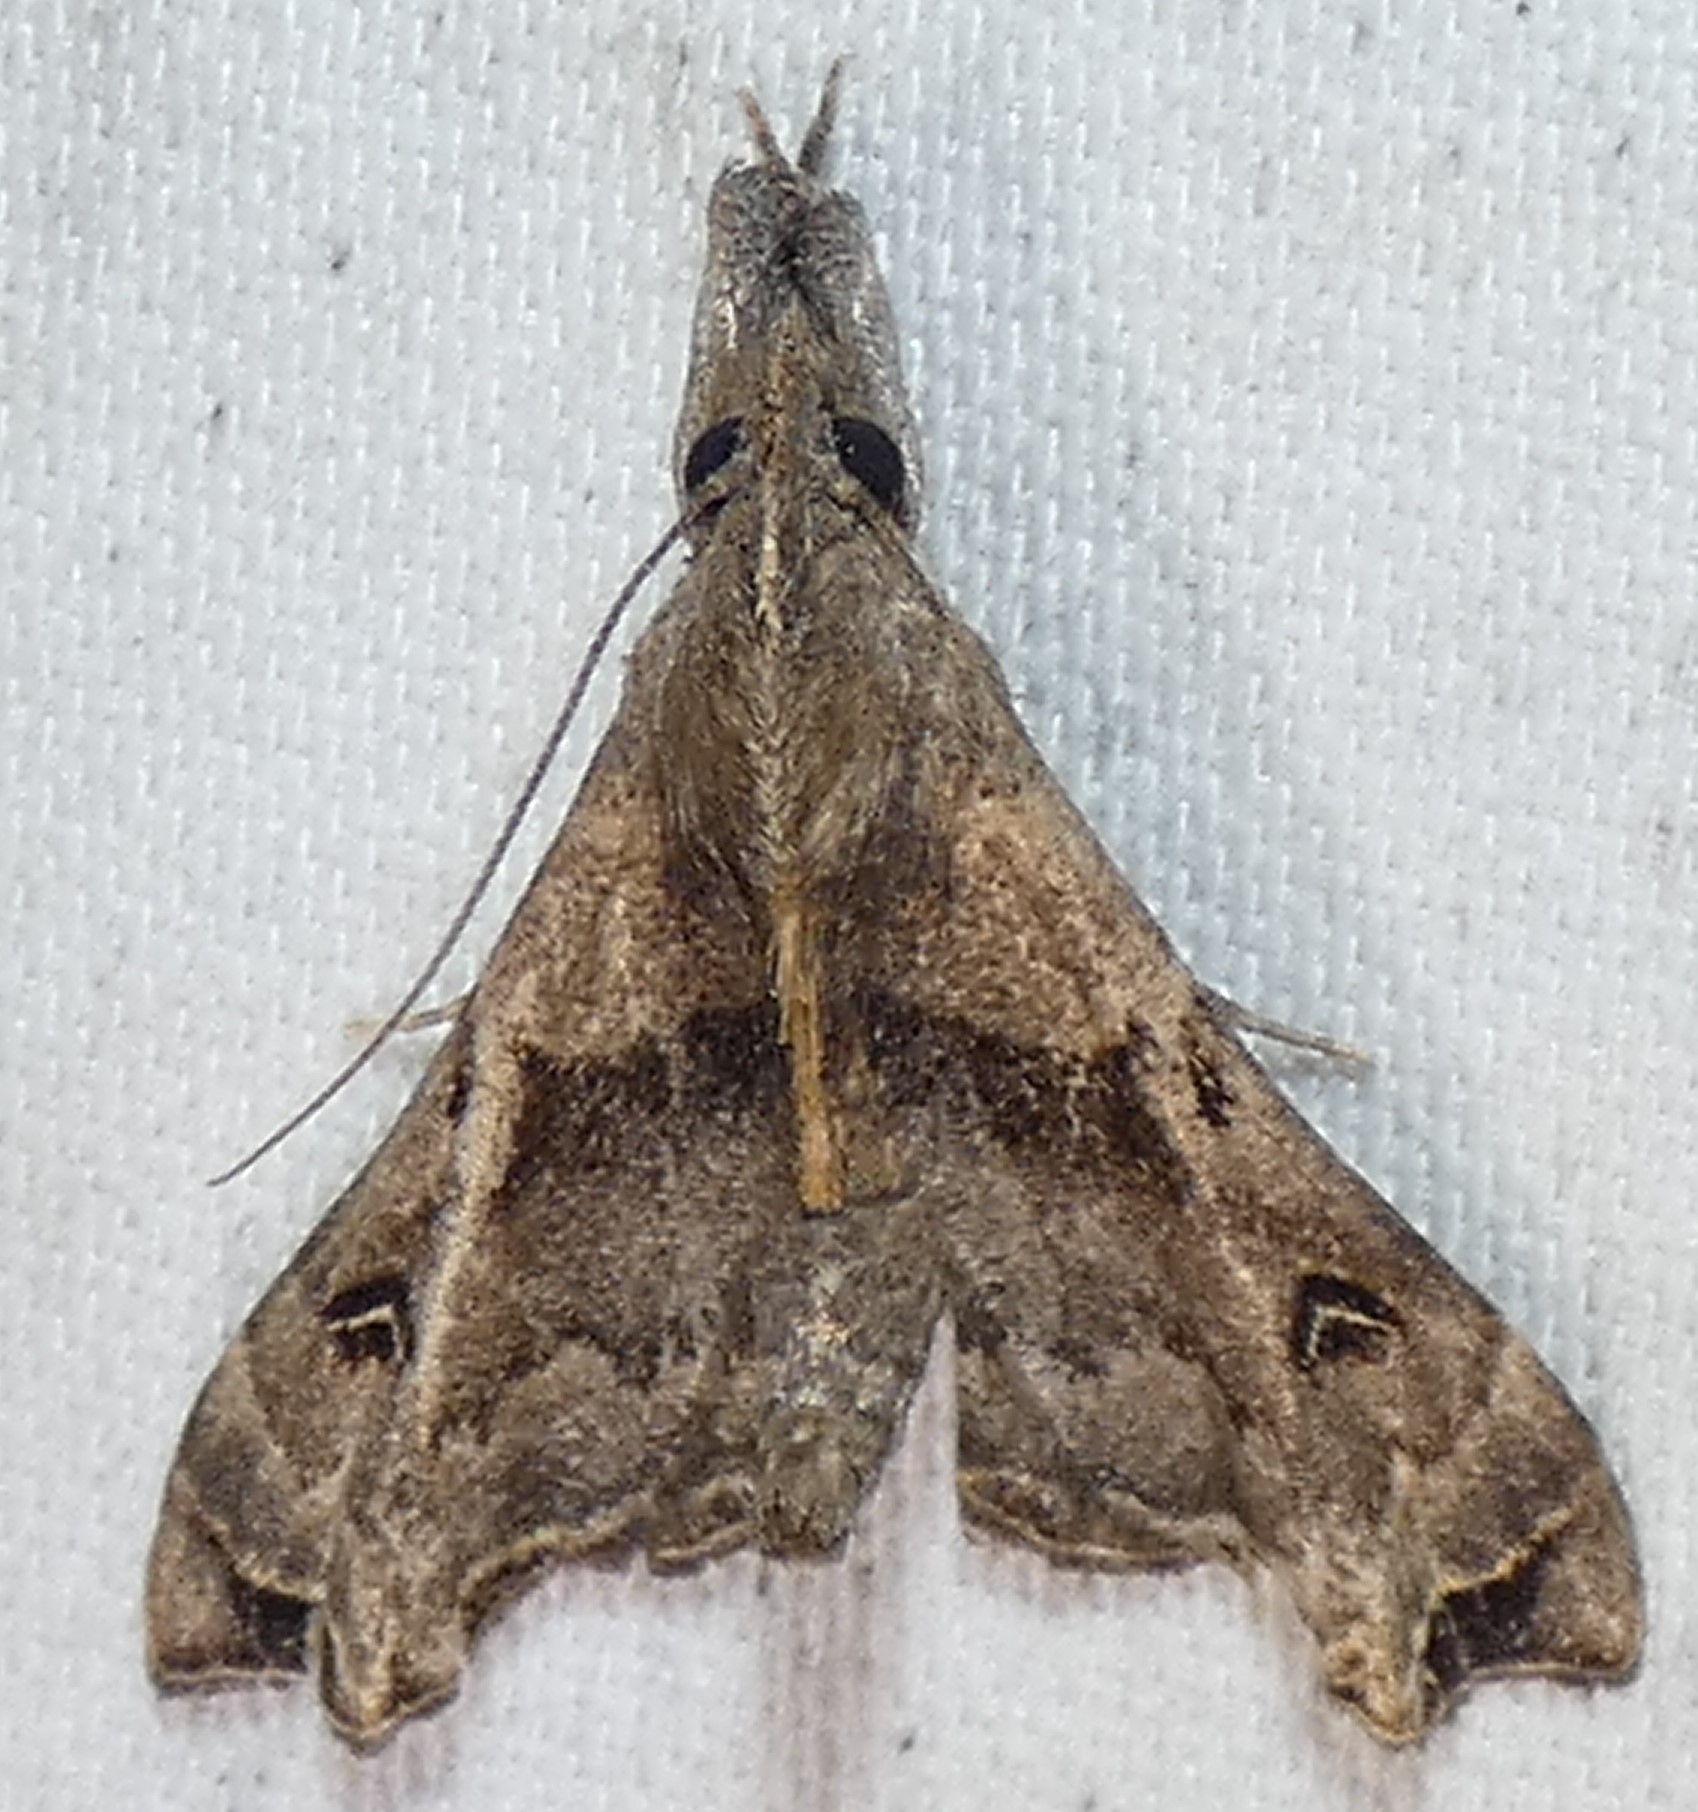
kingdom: Animalia
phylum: Arthropoda
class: Insecta
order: Lepidoptera
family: Erebidae
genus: Palthis
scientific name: Palthis asopialis
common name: Faint-spotted palthis moth
